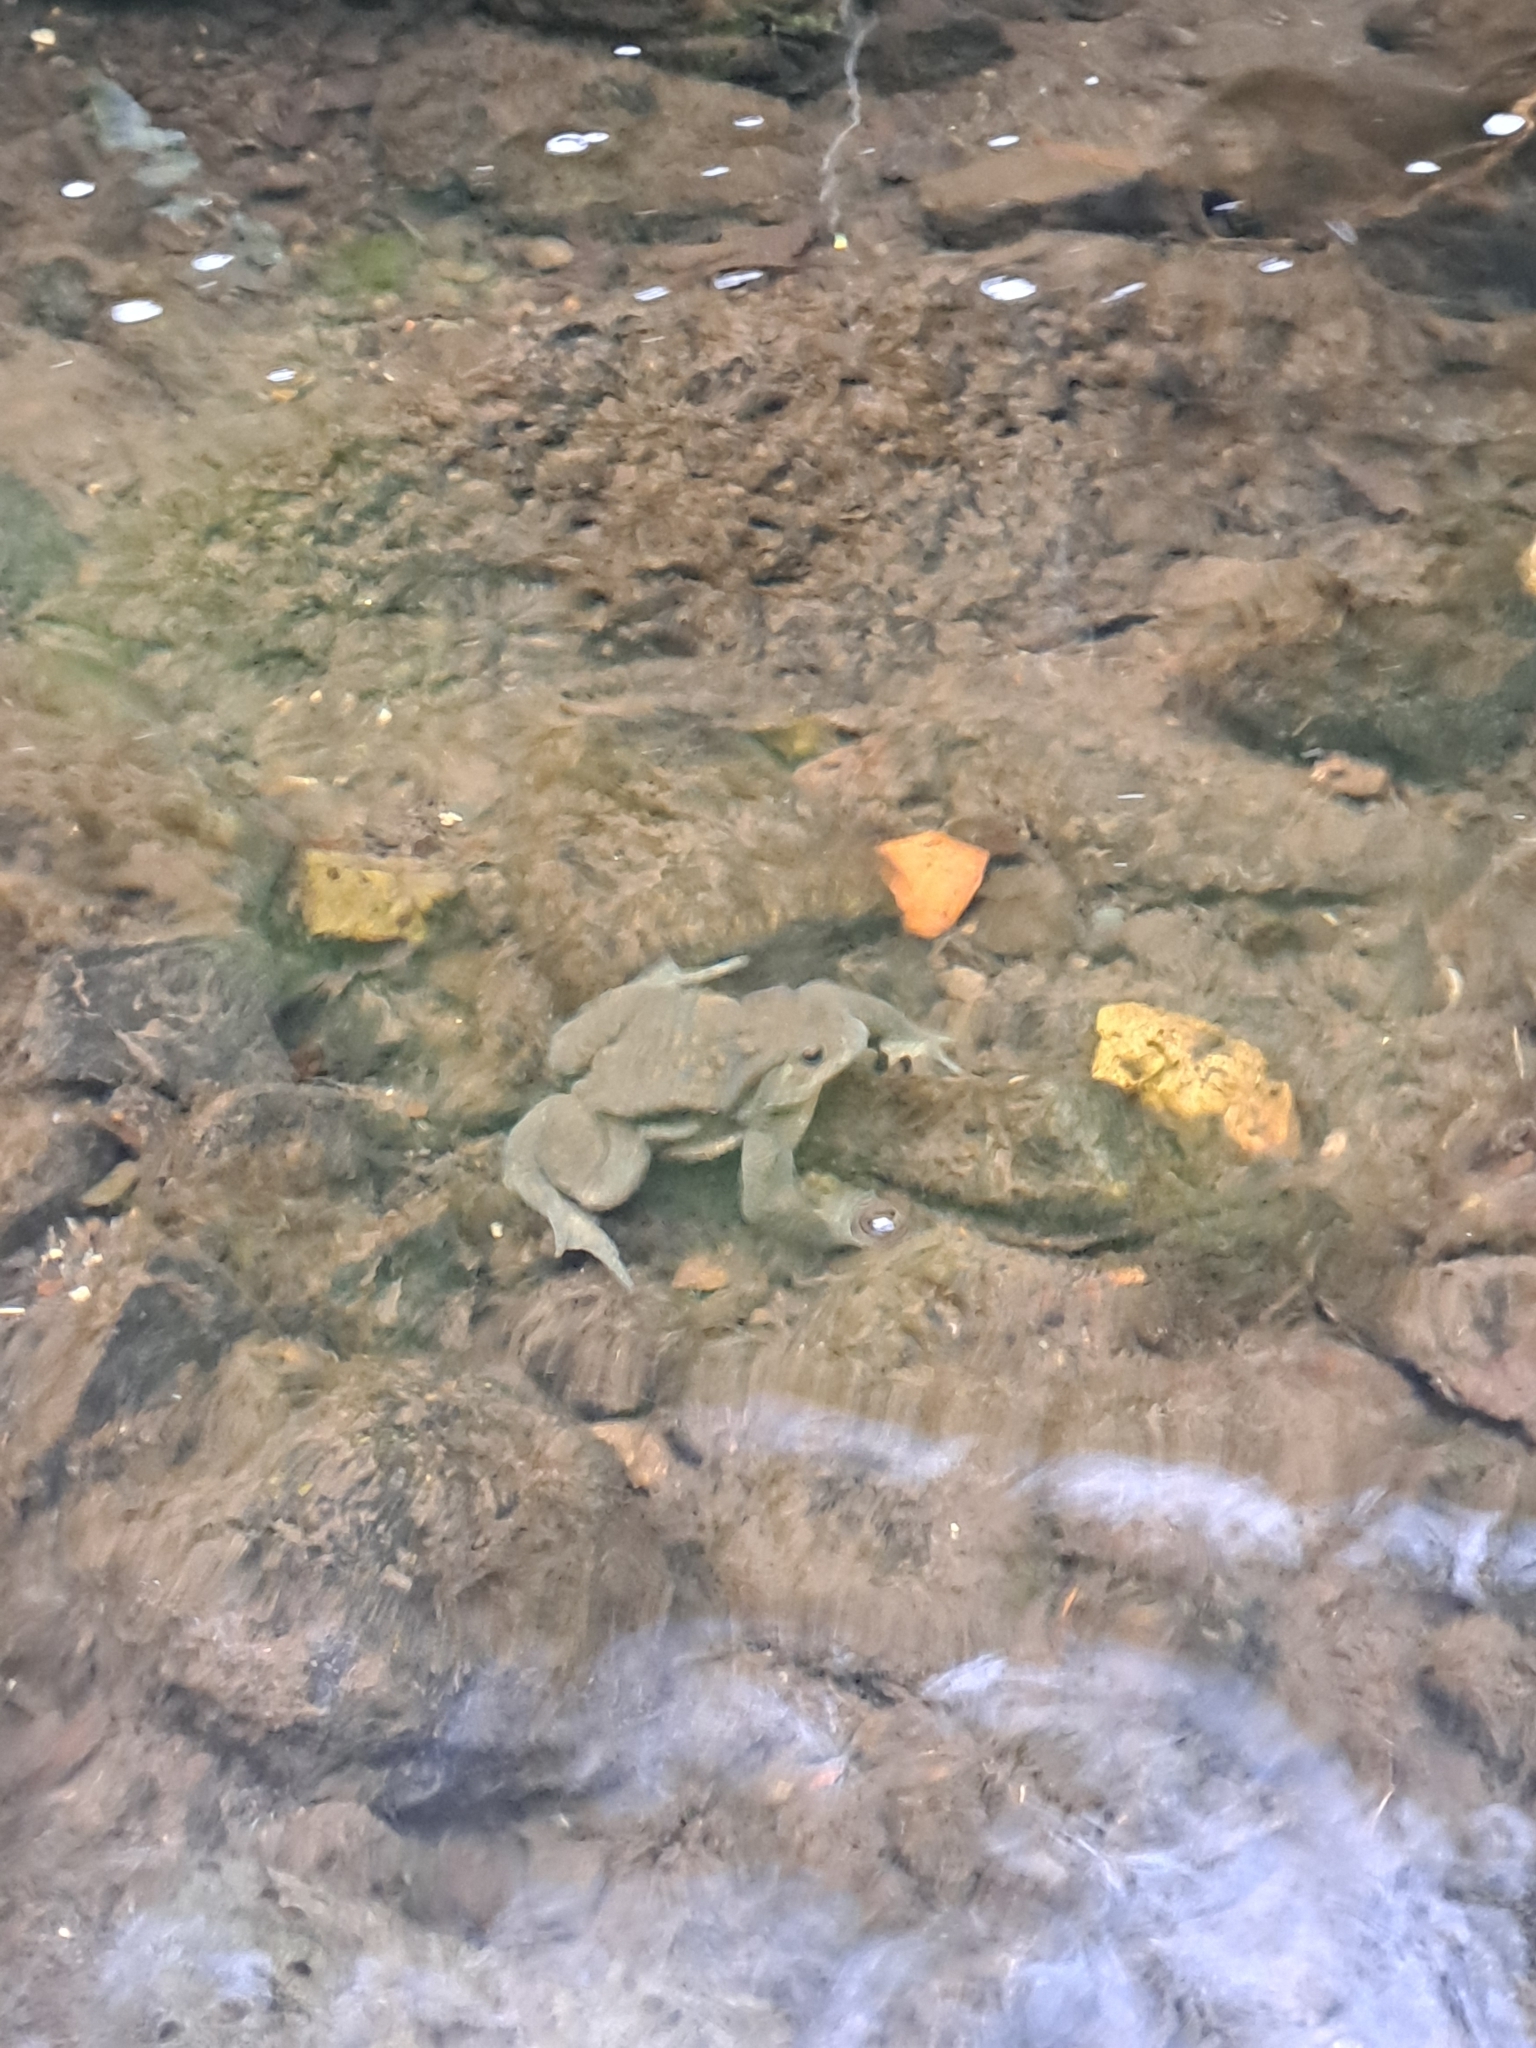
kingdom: Animalia
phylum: Chordata
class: Amphibia
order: Anura
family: Bufonidae
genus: Bufo
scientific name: Bufo bufo
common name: Common toad
